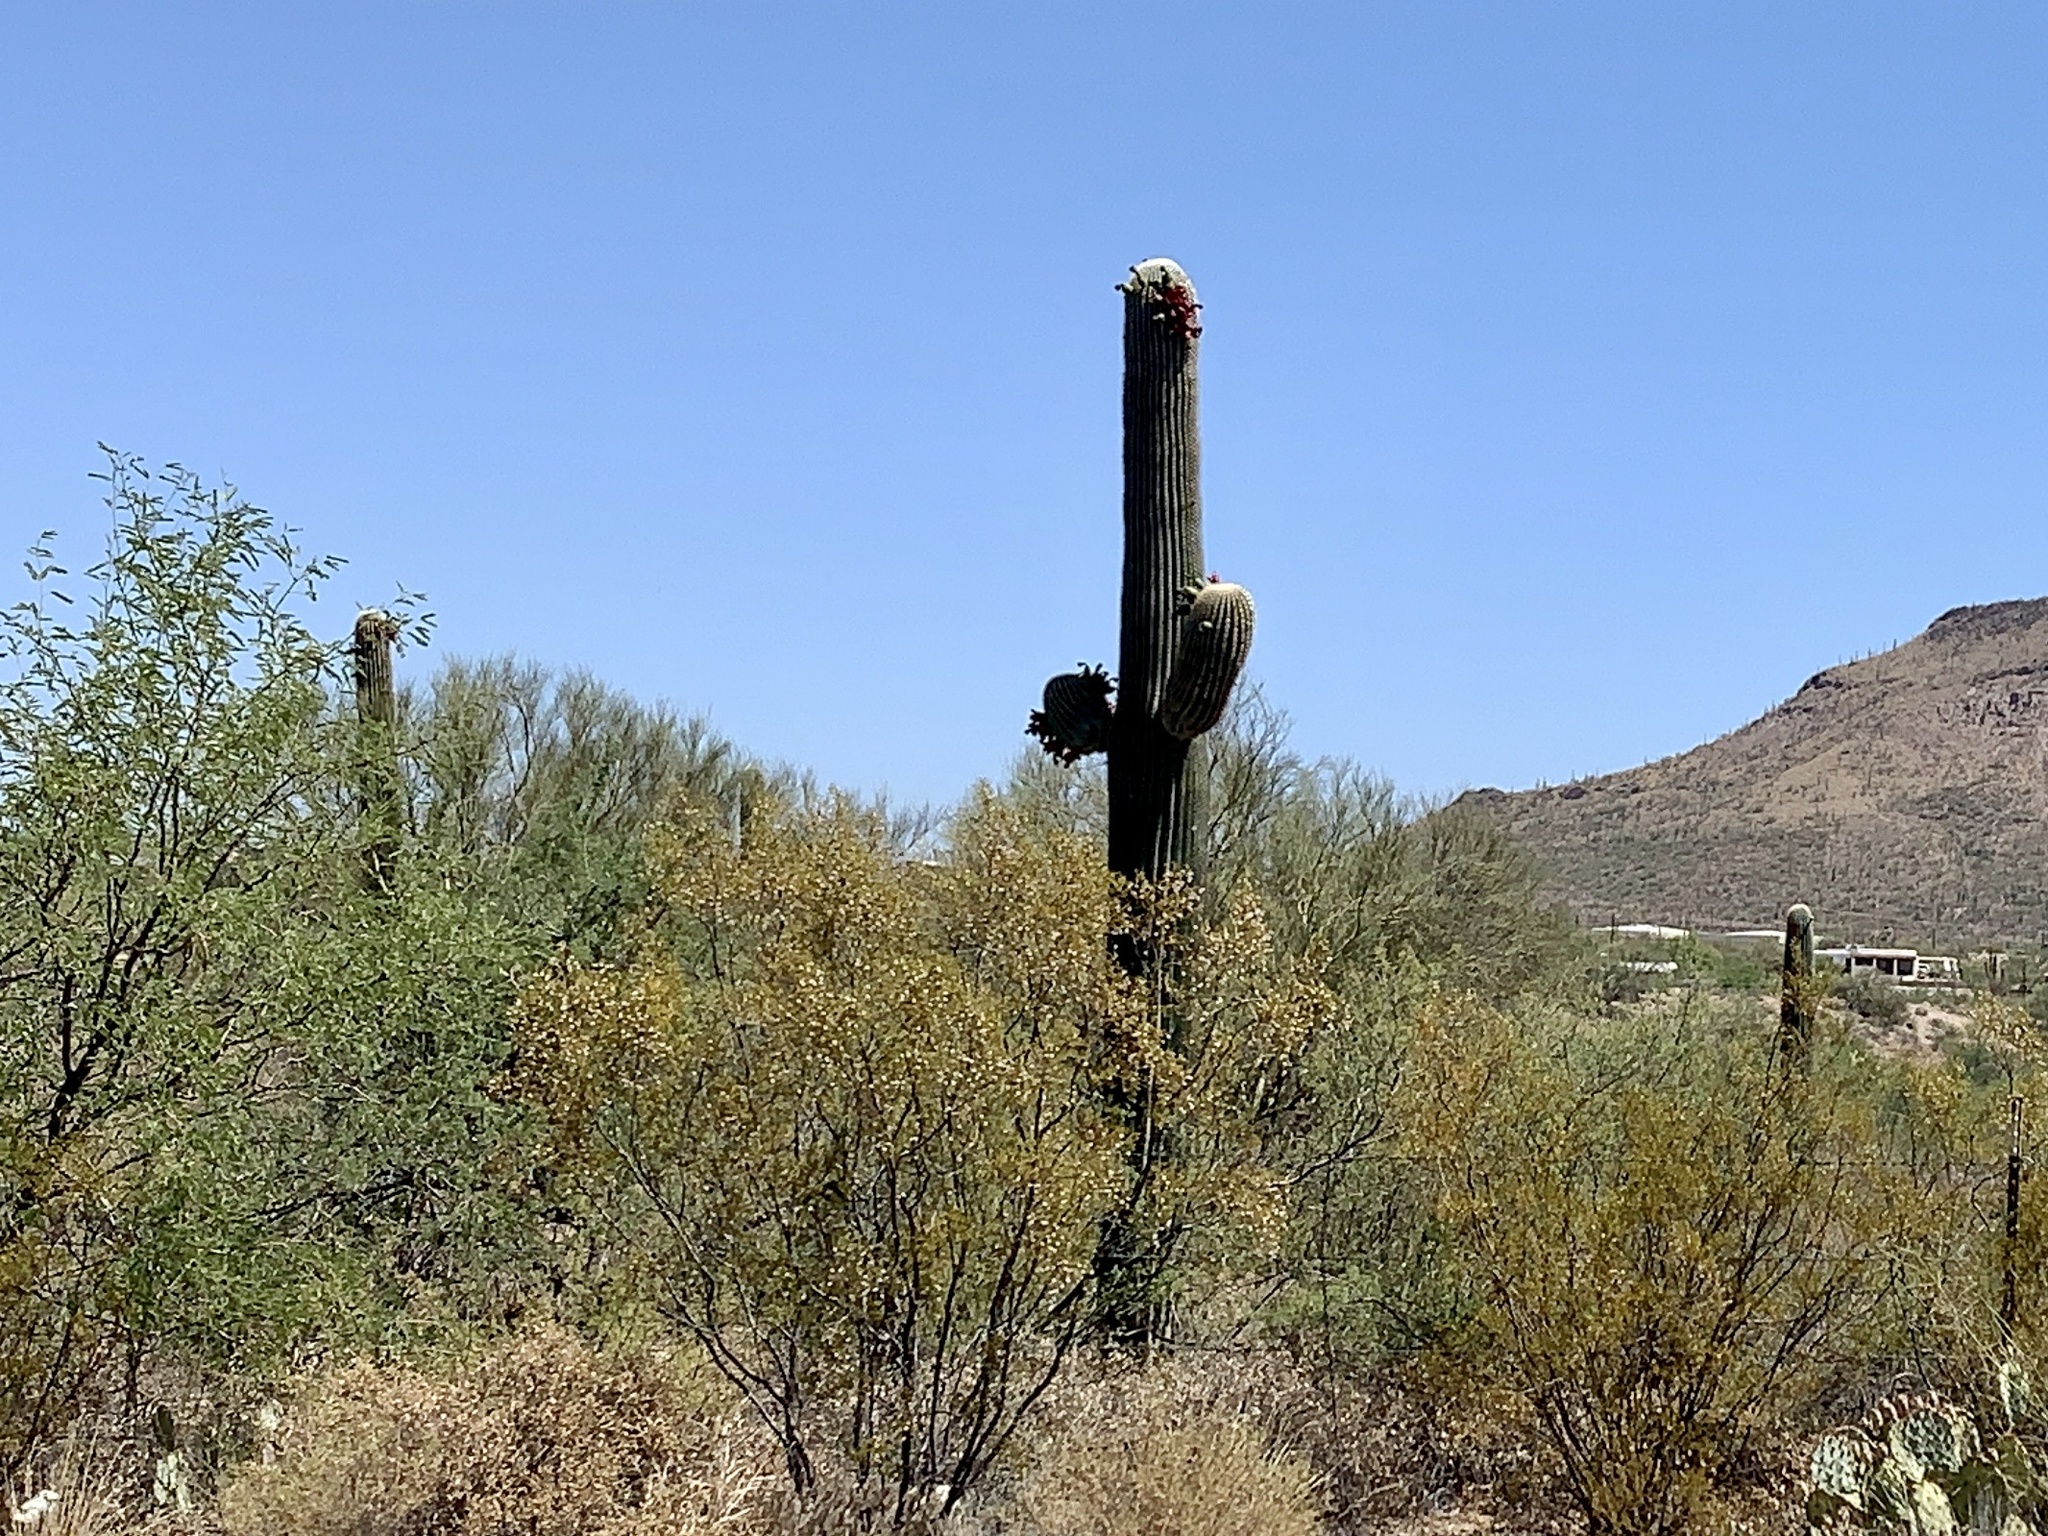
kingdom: Plantae
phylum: Tracheophyta
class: Magnoliopsida
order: Caryophyllales
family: Cactaceae
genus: Carnegiea
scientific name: Carnegiea gigantea
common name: Saguaro
